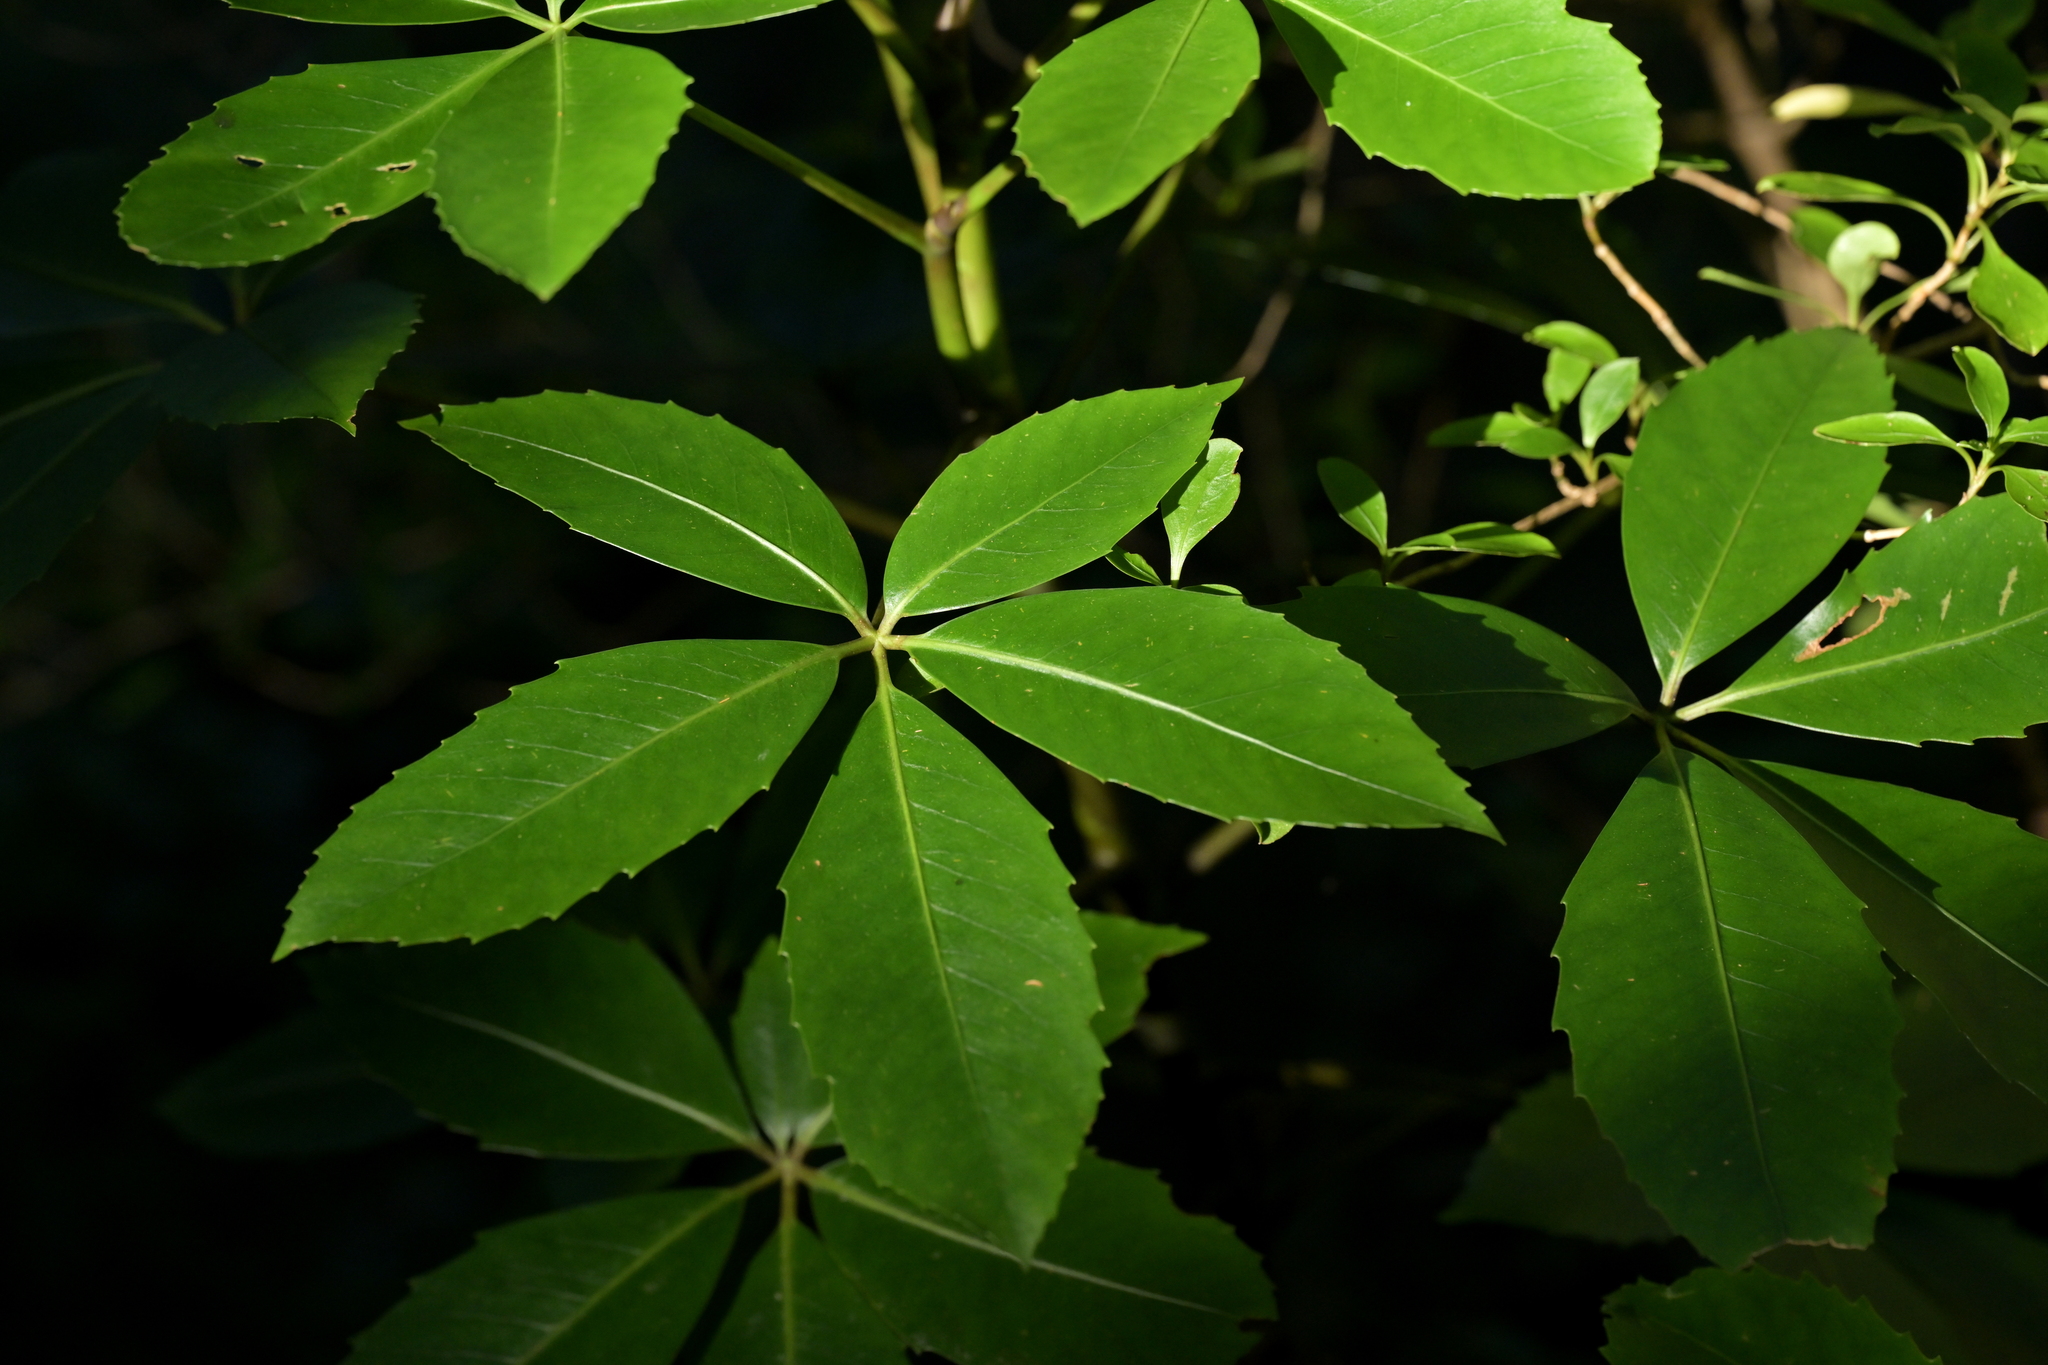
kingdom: Plantae
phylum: Tracheophyta
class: Magnoliopsida
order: Apiales
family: Araliaceae
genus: Neopanax
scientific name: Neopanax colensoi
